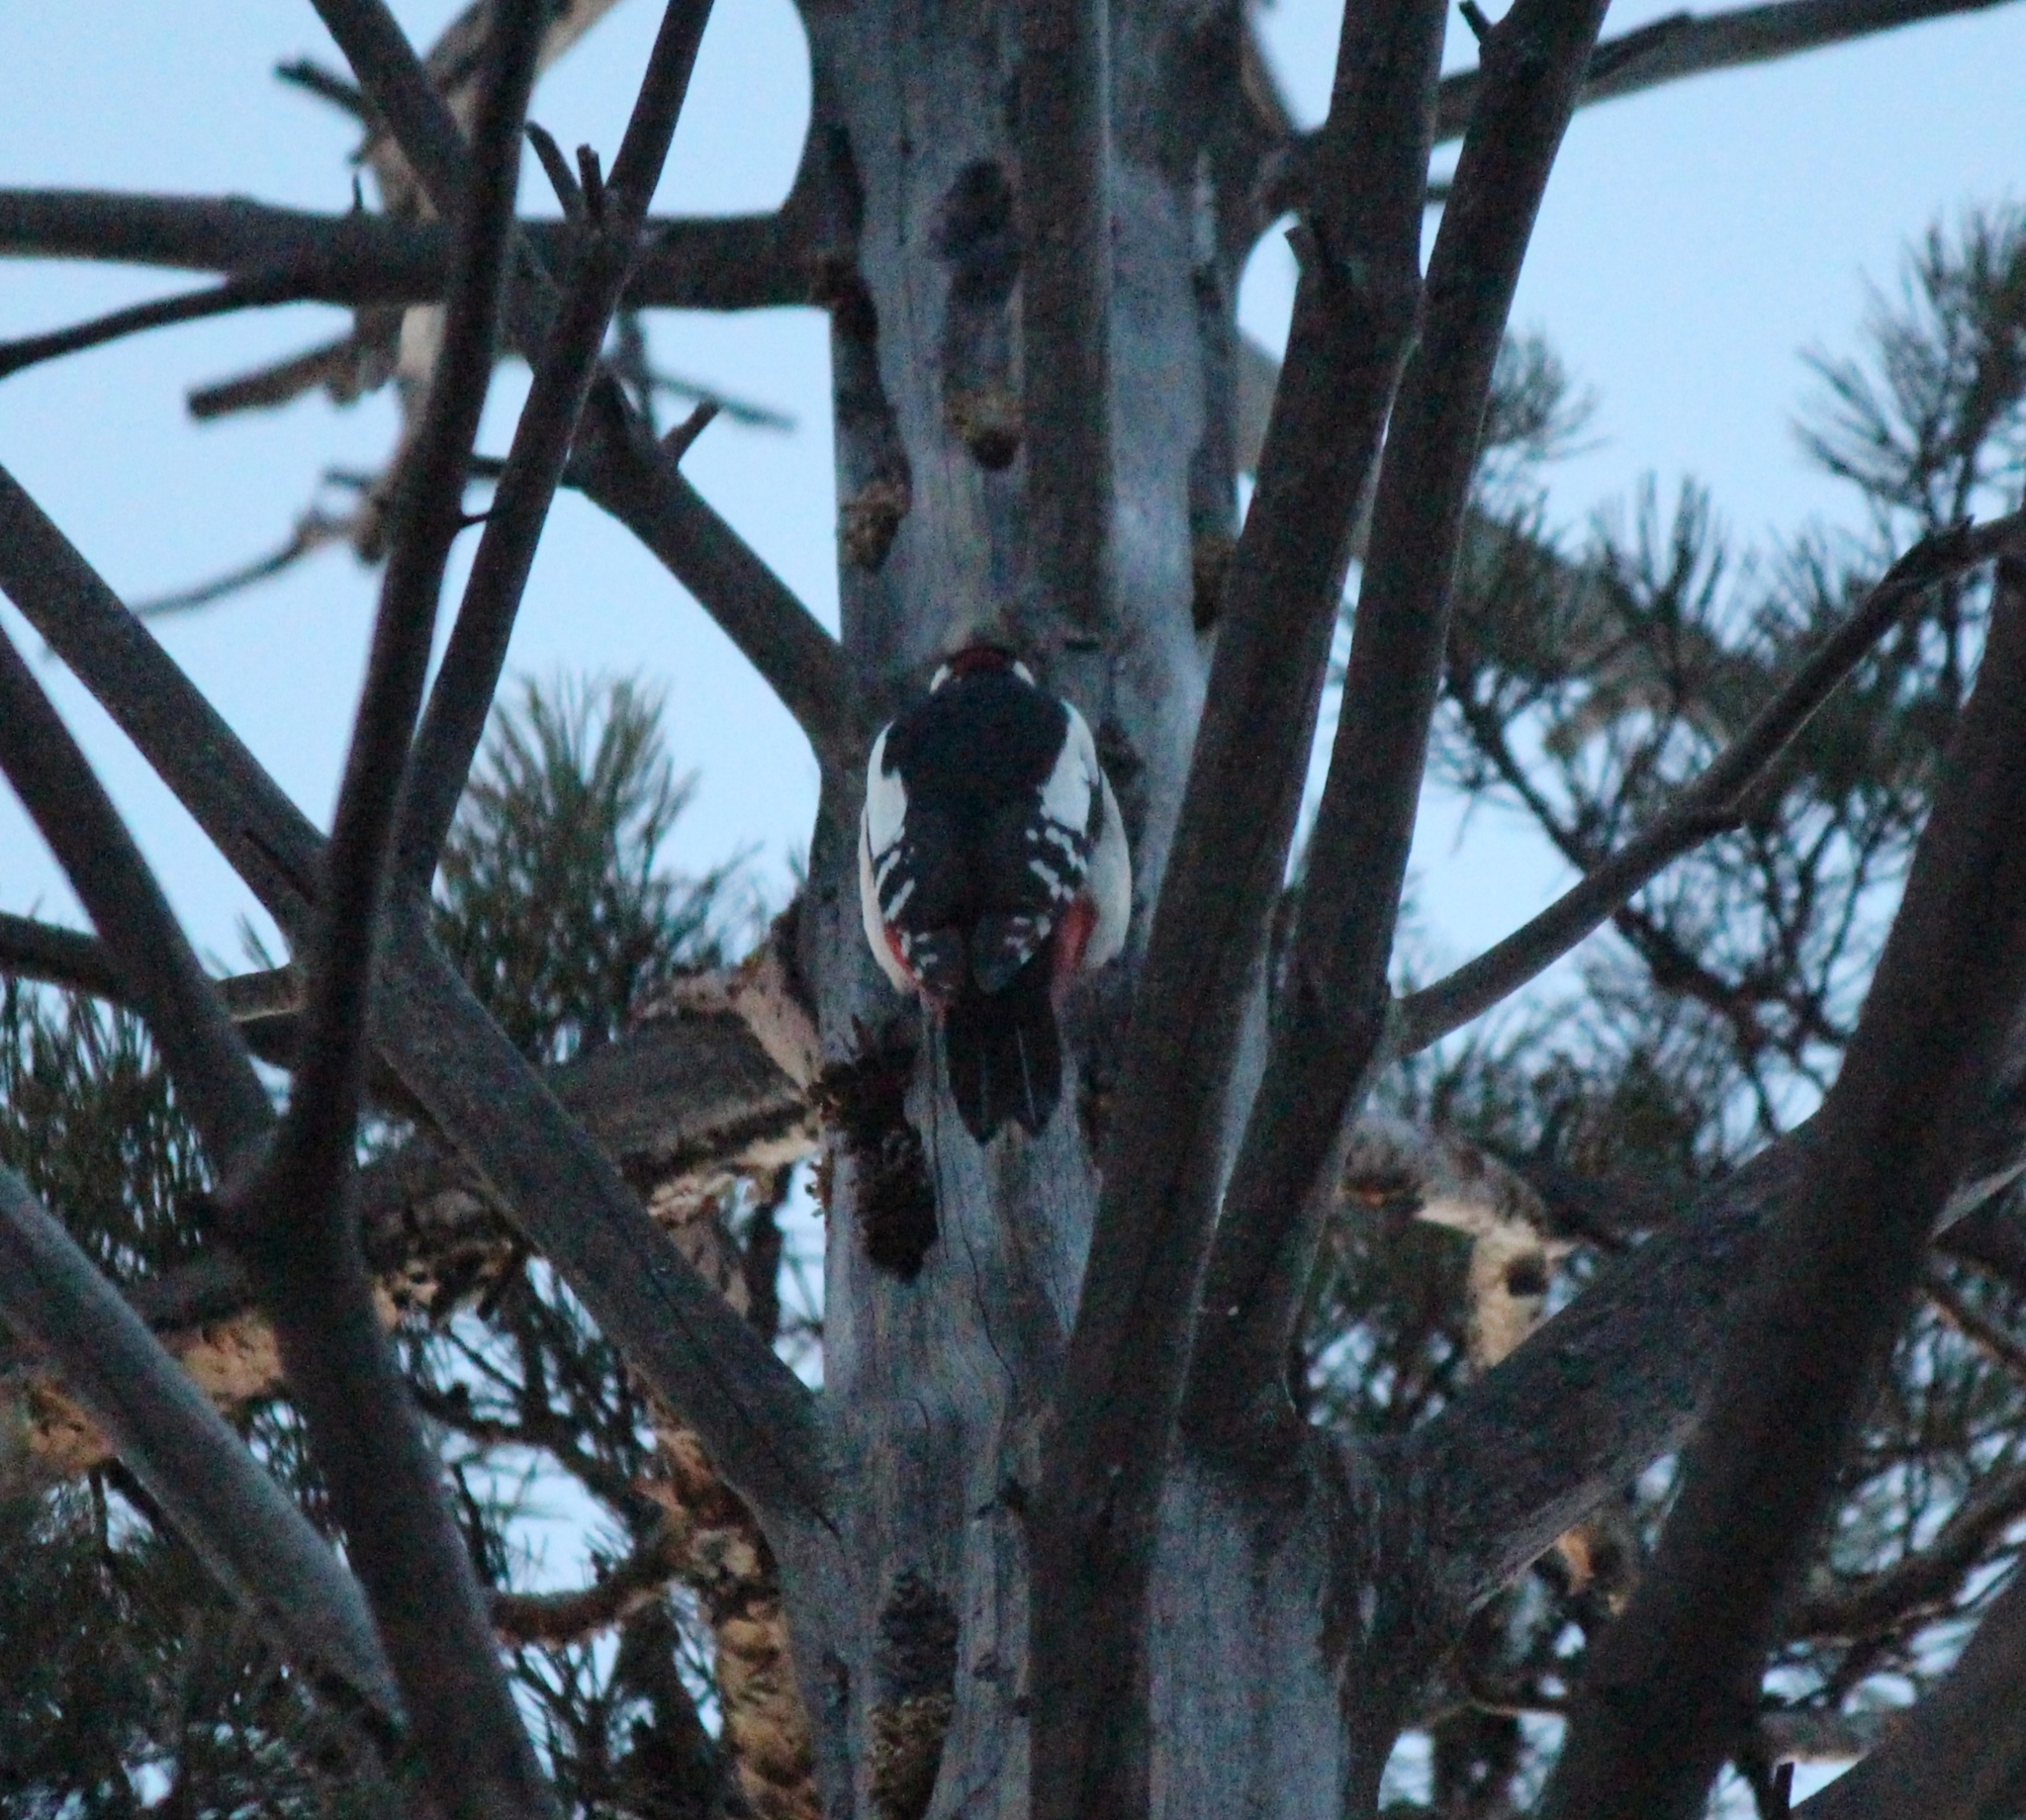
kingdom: Animalia
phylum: Chordata
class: Aves
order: Piciformes
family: Picidae
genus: Dendrocopos
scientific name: Dendrocopos major
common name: Great spotted woodpecker
